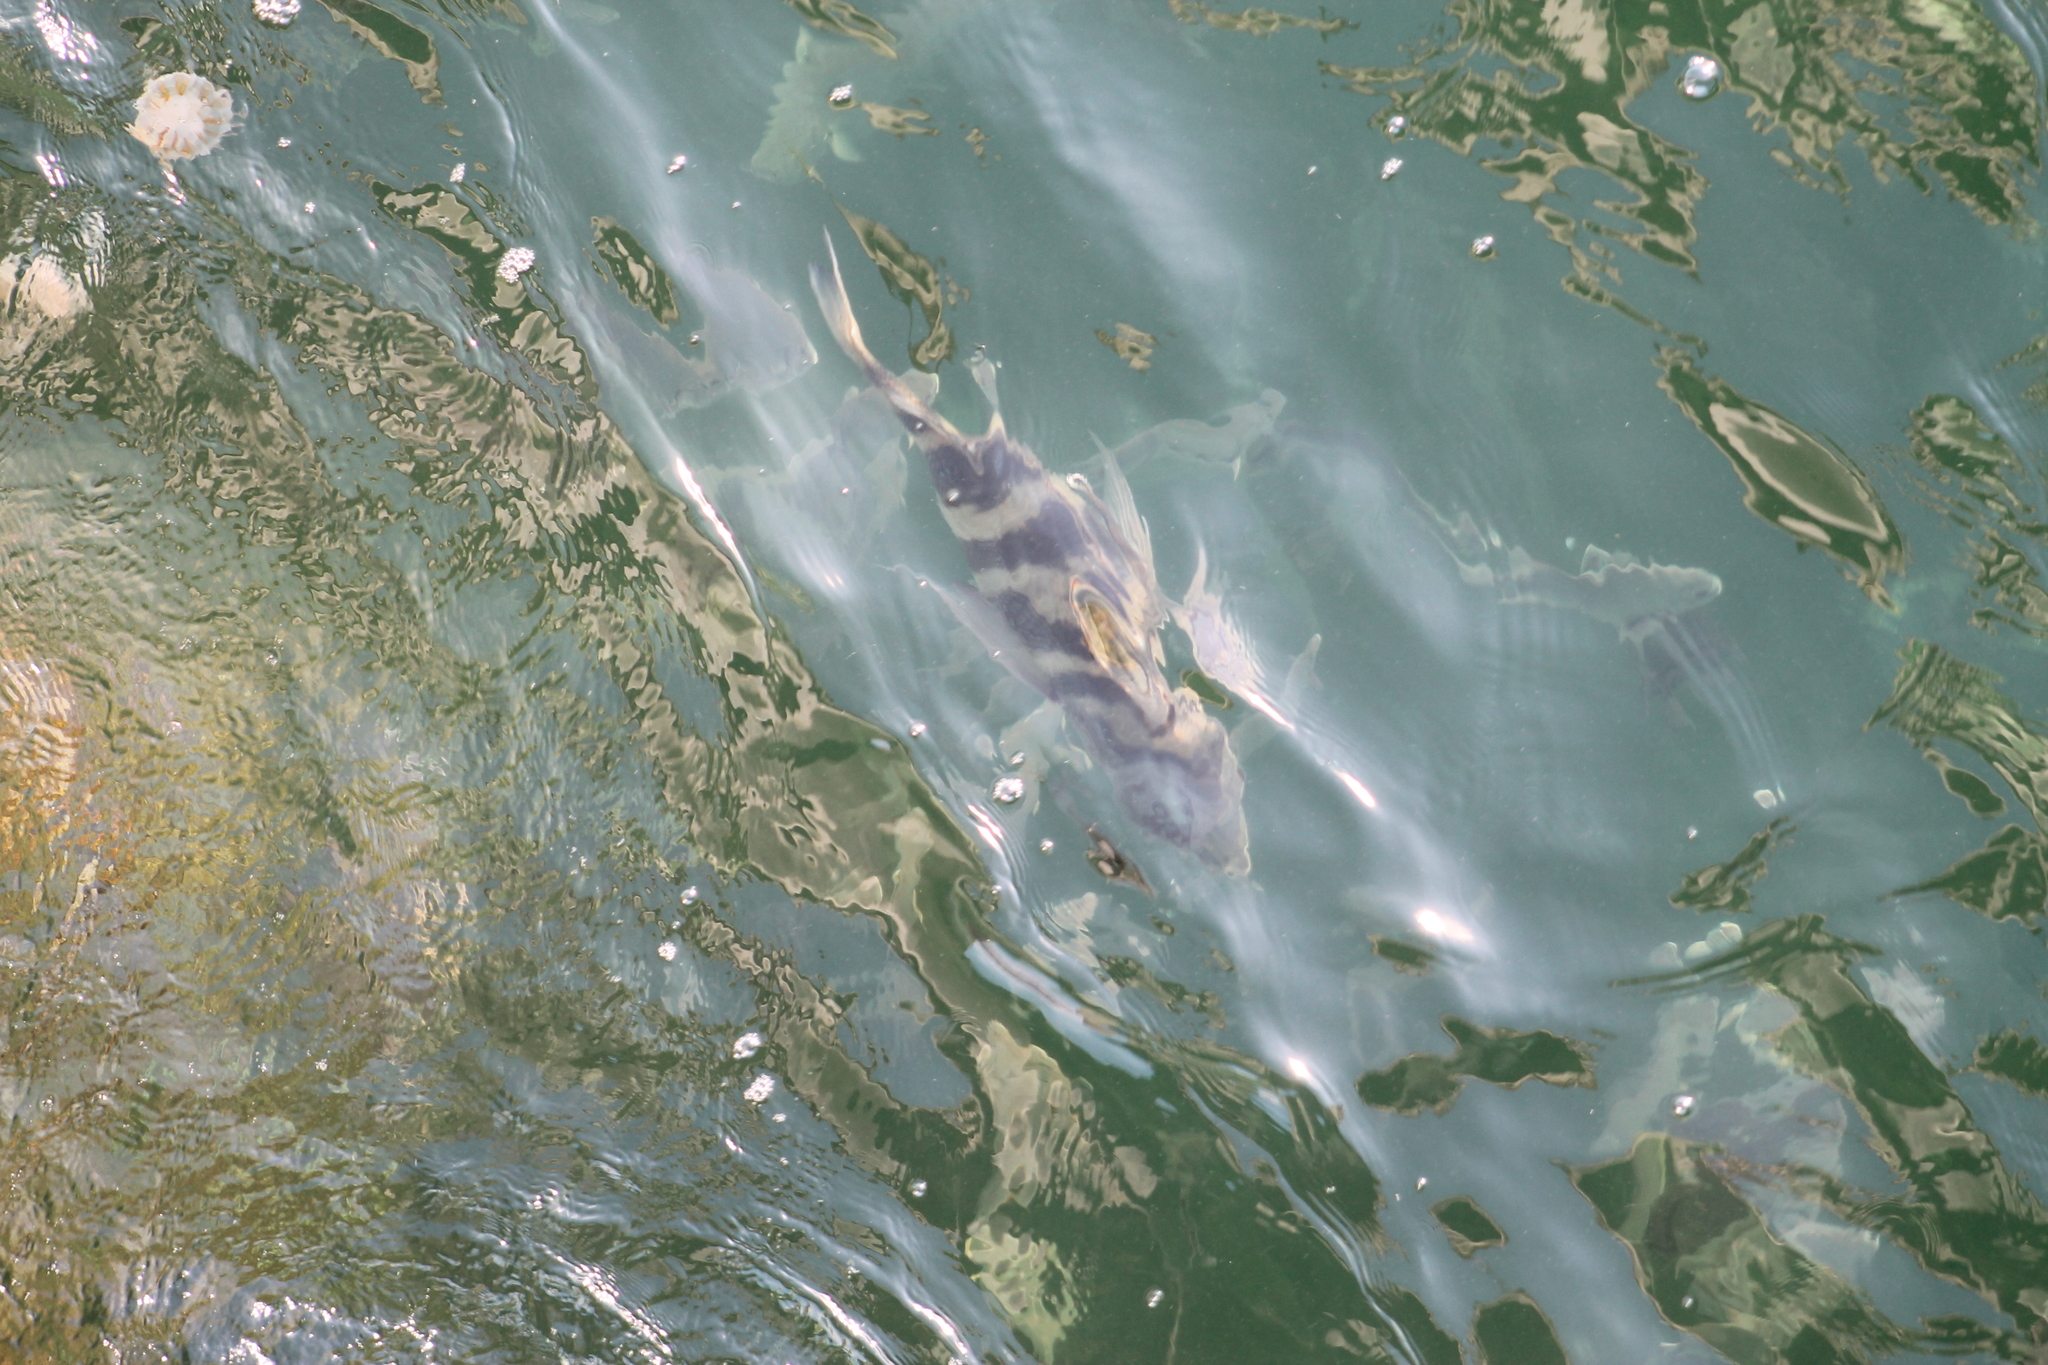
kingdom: Animalia
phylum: Chordata
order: Perciformes
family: Sparidae
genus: Archosargus
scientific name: Archosargus probatocephalus
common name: Sheepshead
